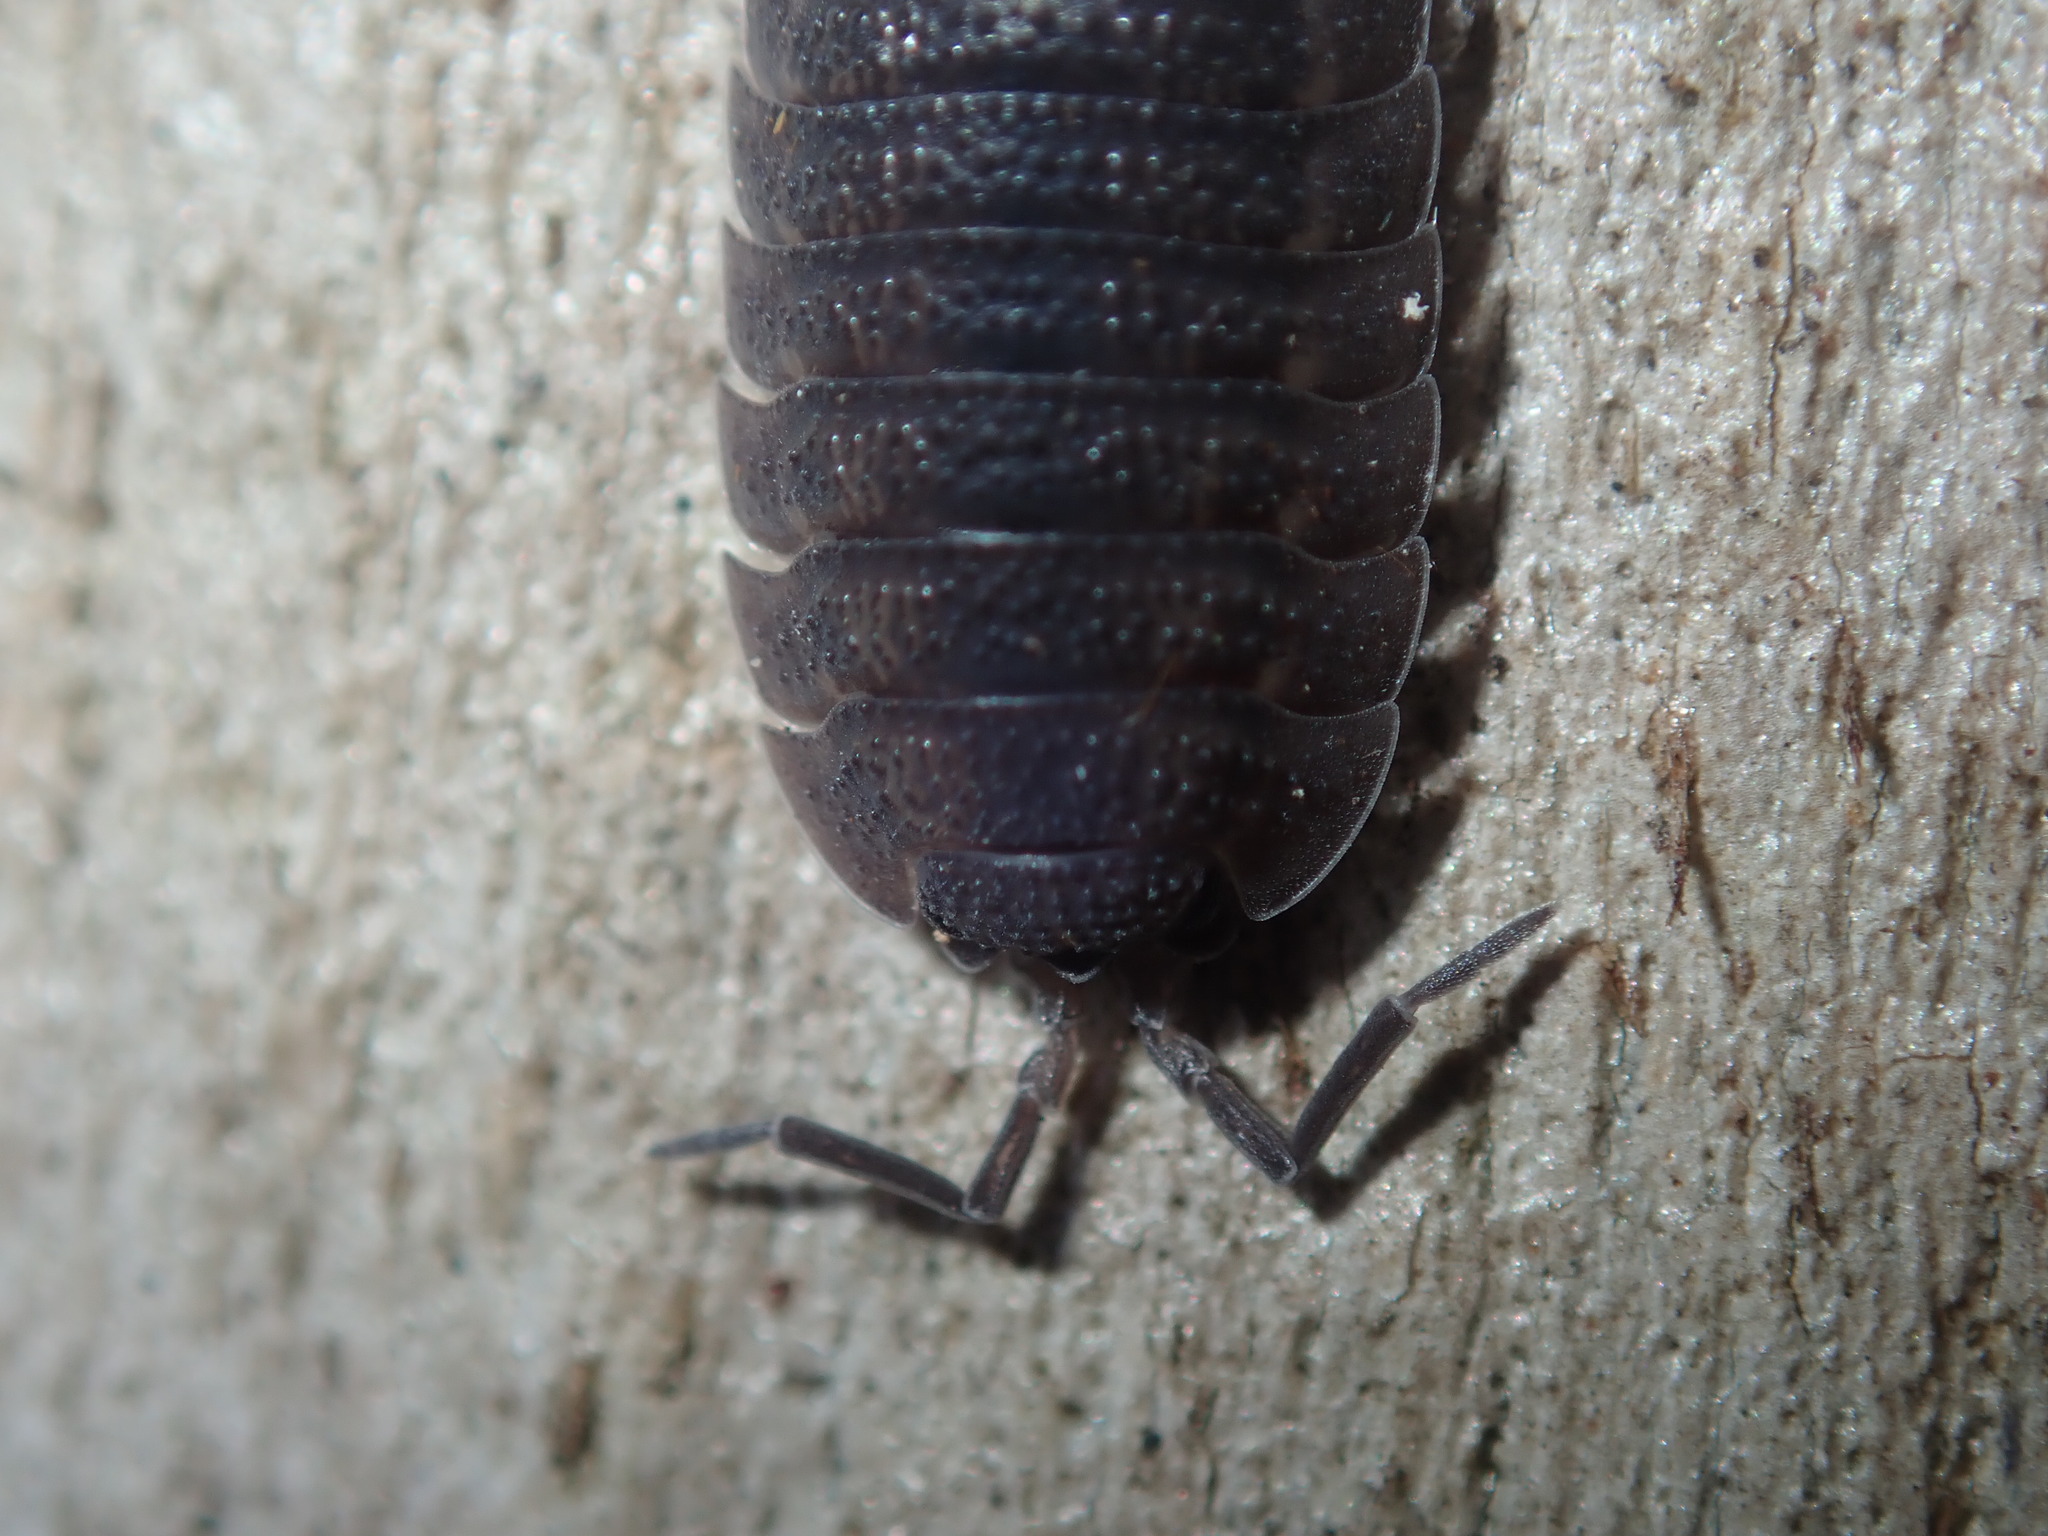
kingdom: Animalia
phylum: Arthropoda
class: Malacostraca
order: Isopoda
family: Porcellionidae
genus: Porcellio
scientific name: Porcellio scaber
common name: Common rough woodlouse
